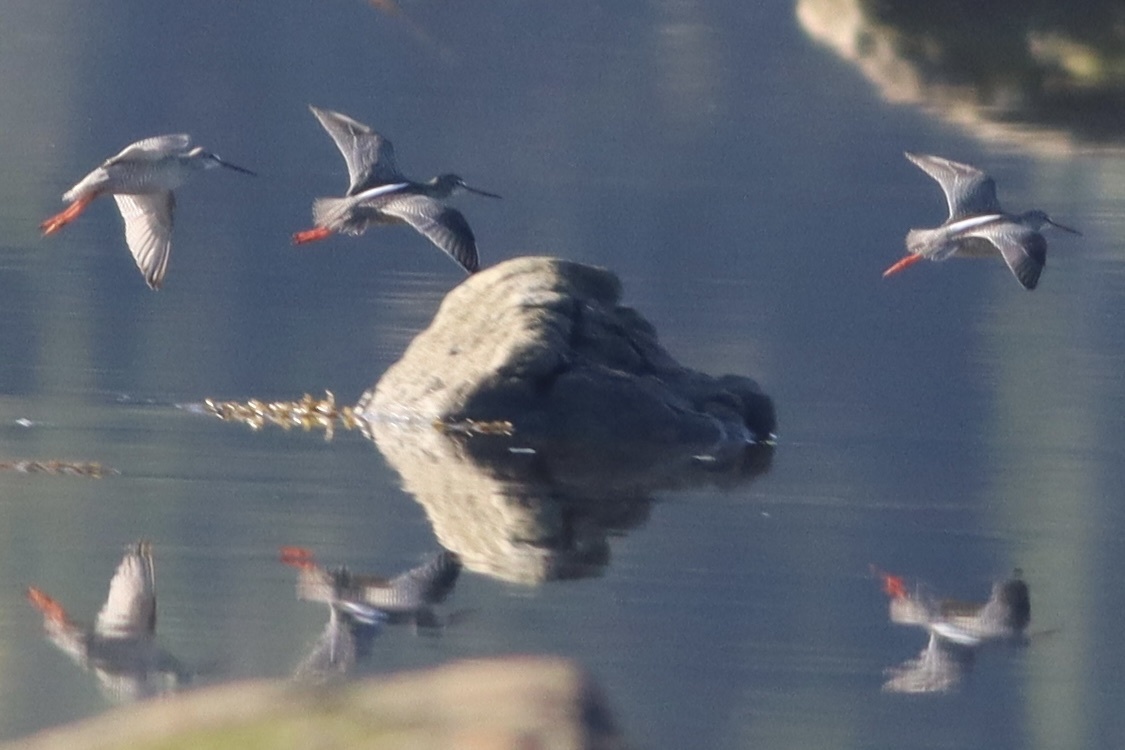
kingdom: Animalia
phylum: Chordata
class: Aves
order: Charadriiformes
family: Scolopacidae
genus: Tringa
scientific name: Tringa erythropus
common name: Spotted redshank
